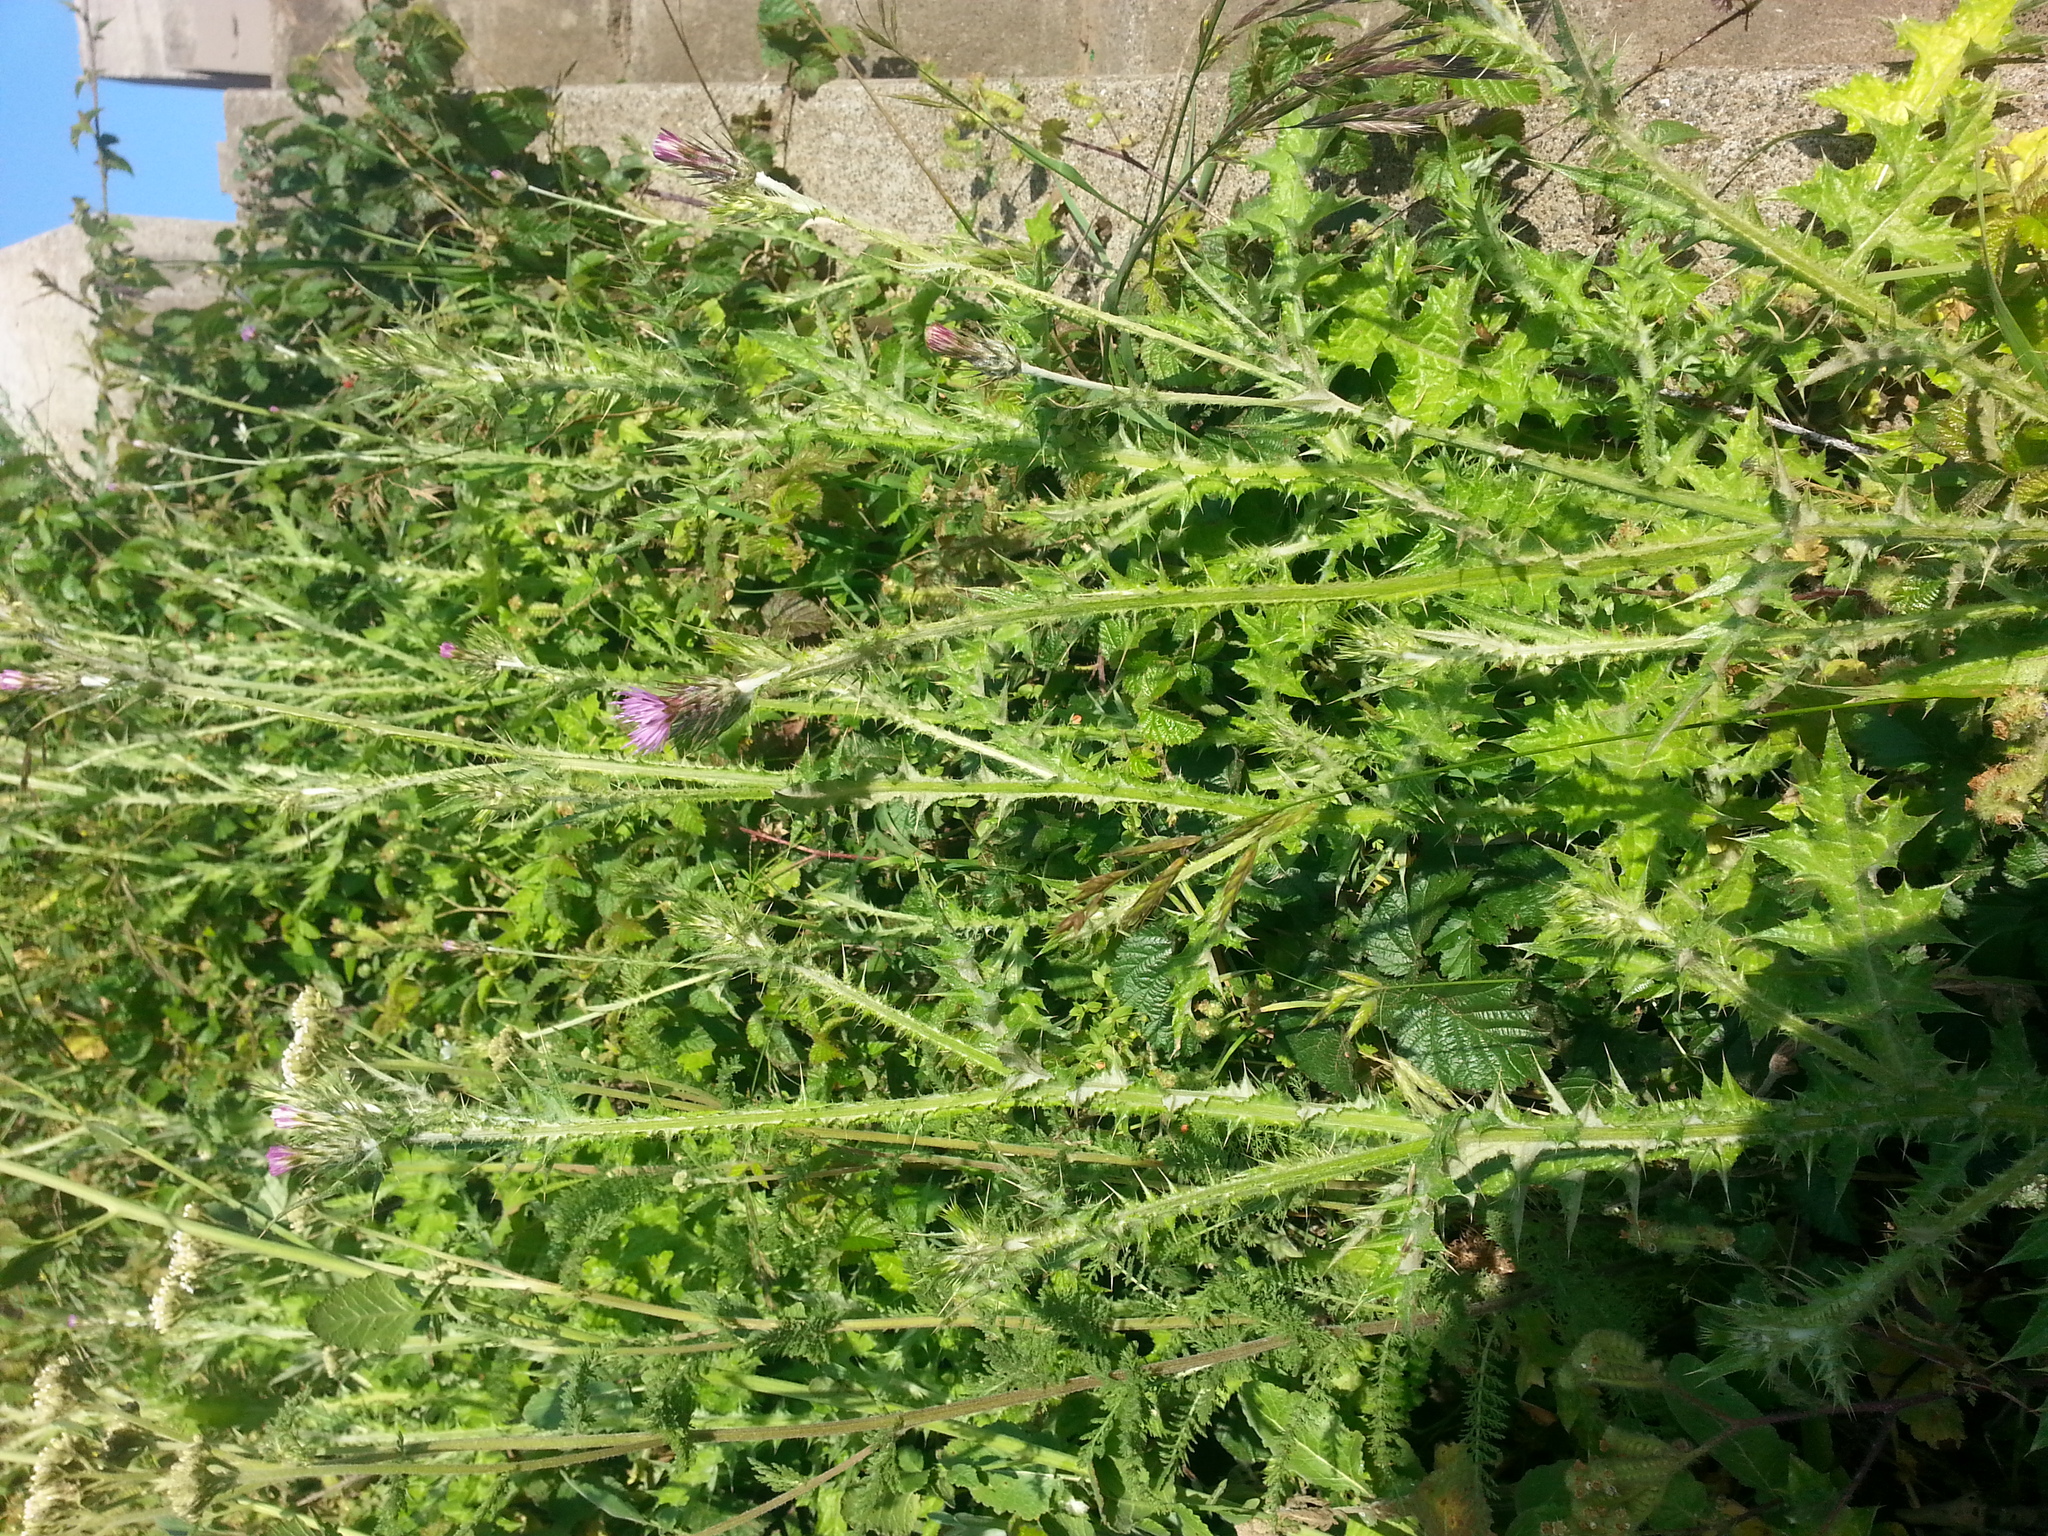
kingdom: Plantae
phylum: Tracheophyta
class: Magnoliopsida
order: Asterales
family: Asteraceae
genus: Carduus
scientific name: Carduus pycnocephalus
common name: Plymouth thistle
